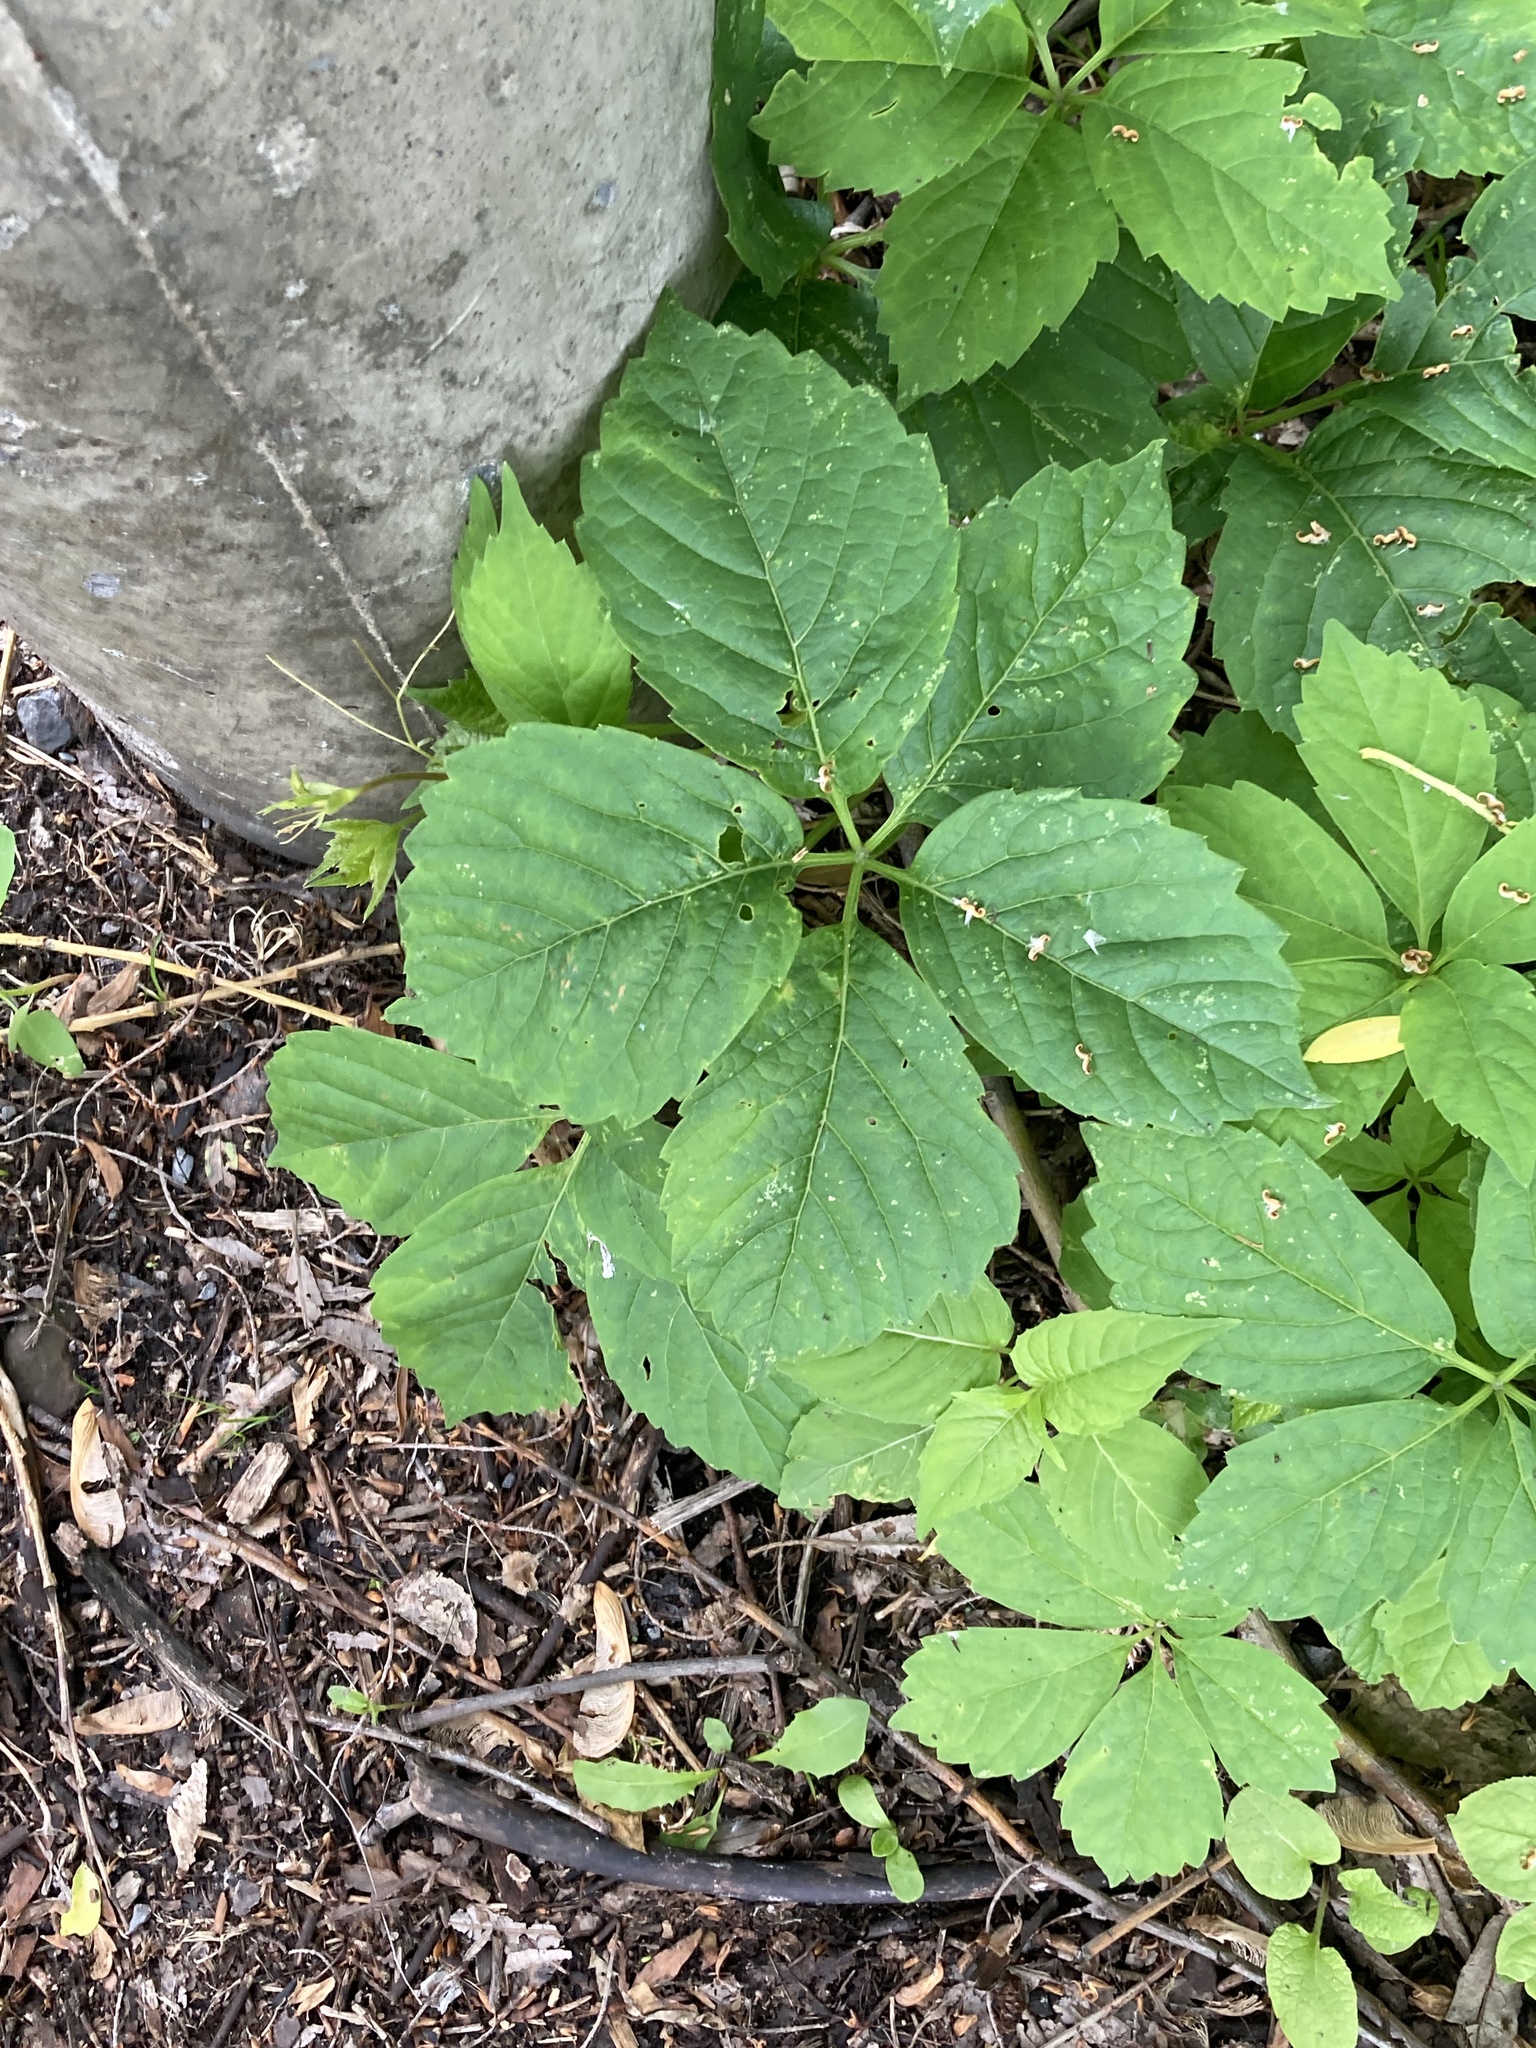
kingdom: Plantae
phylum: Tracheophyta
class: Magnoliopsida
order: Vitales
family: Vitaceae
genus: Parthenocissus
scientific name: Parthenocissus quinquefolia
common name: Virginia-creeper
